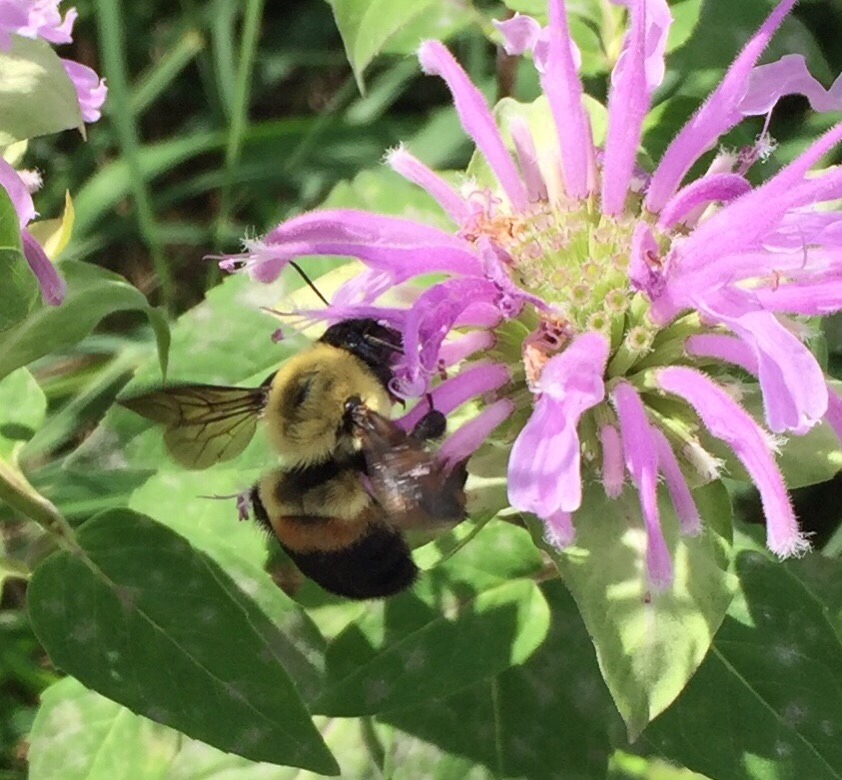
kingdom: Animalia
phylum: Arthropoda
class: Insecta
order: Hymenoptera
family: Apidae
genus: Bombus
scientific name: Bombus griseocollis
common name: Brown-belted bumble bee
